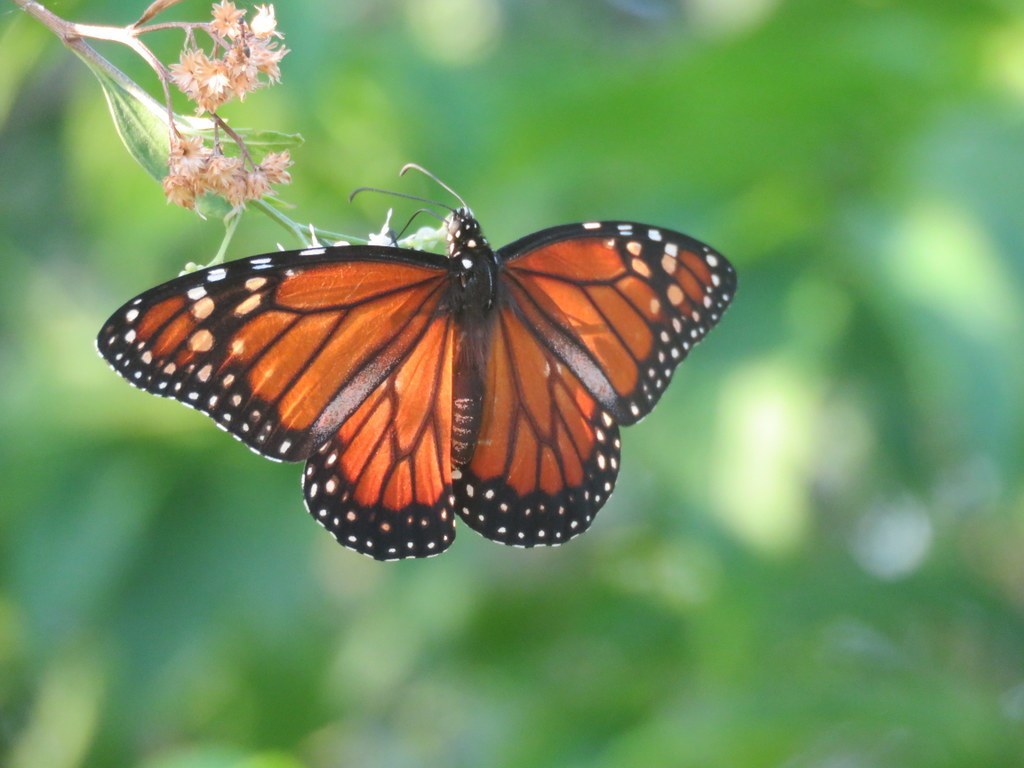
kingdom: Animalia
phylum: Arthropoda
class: Insecta
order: Lepidoptera
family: Nymphalidae
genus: Danaus
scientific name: Danaus erippus
